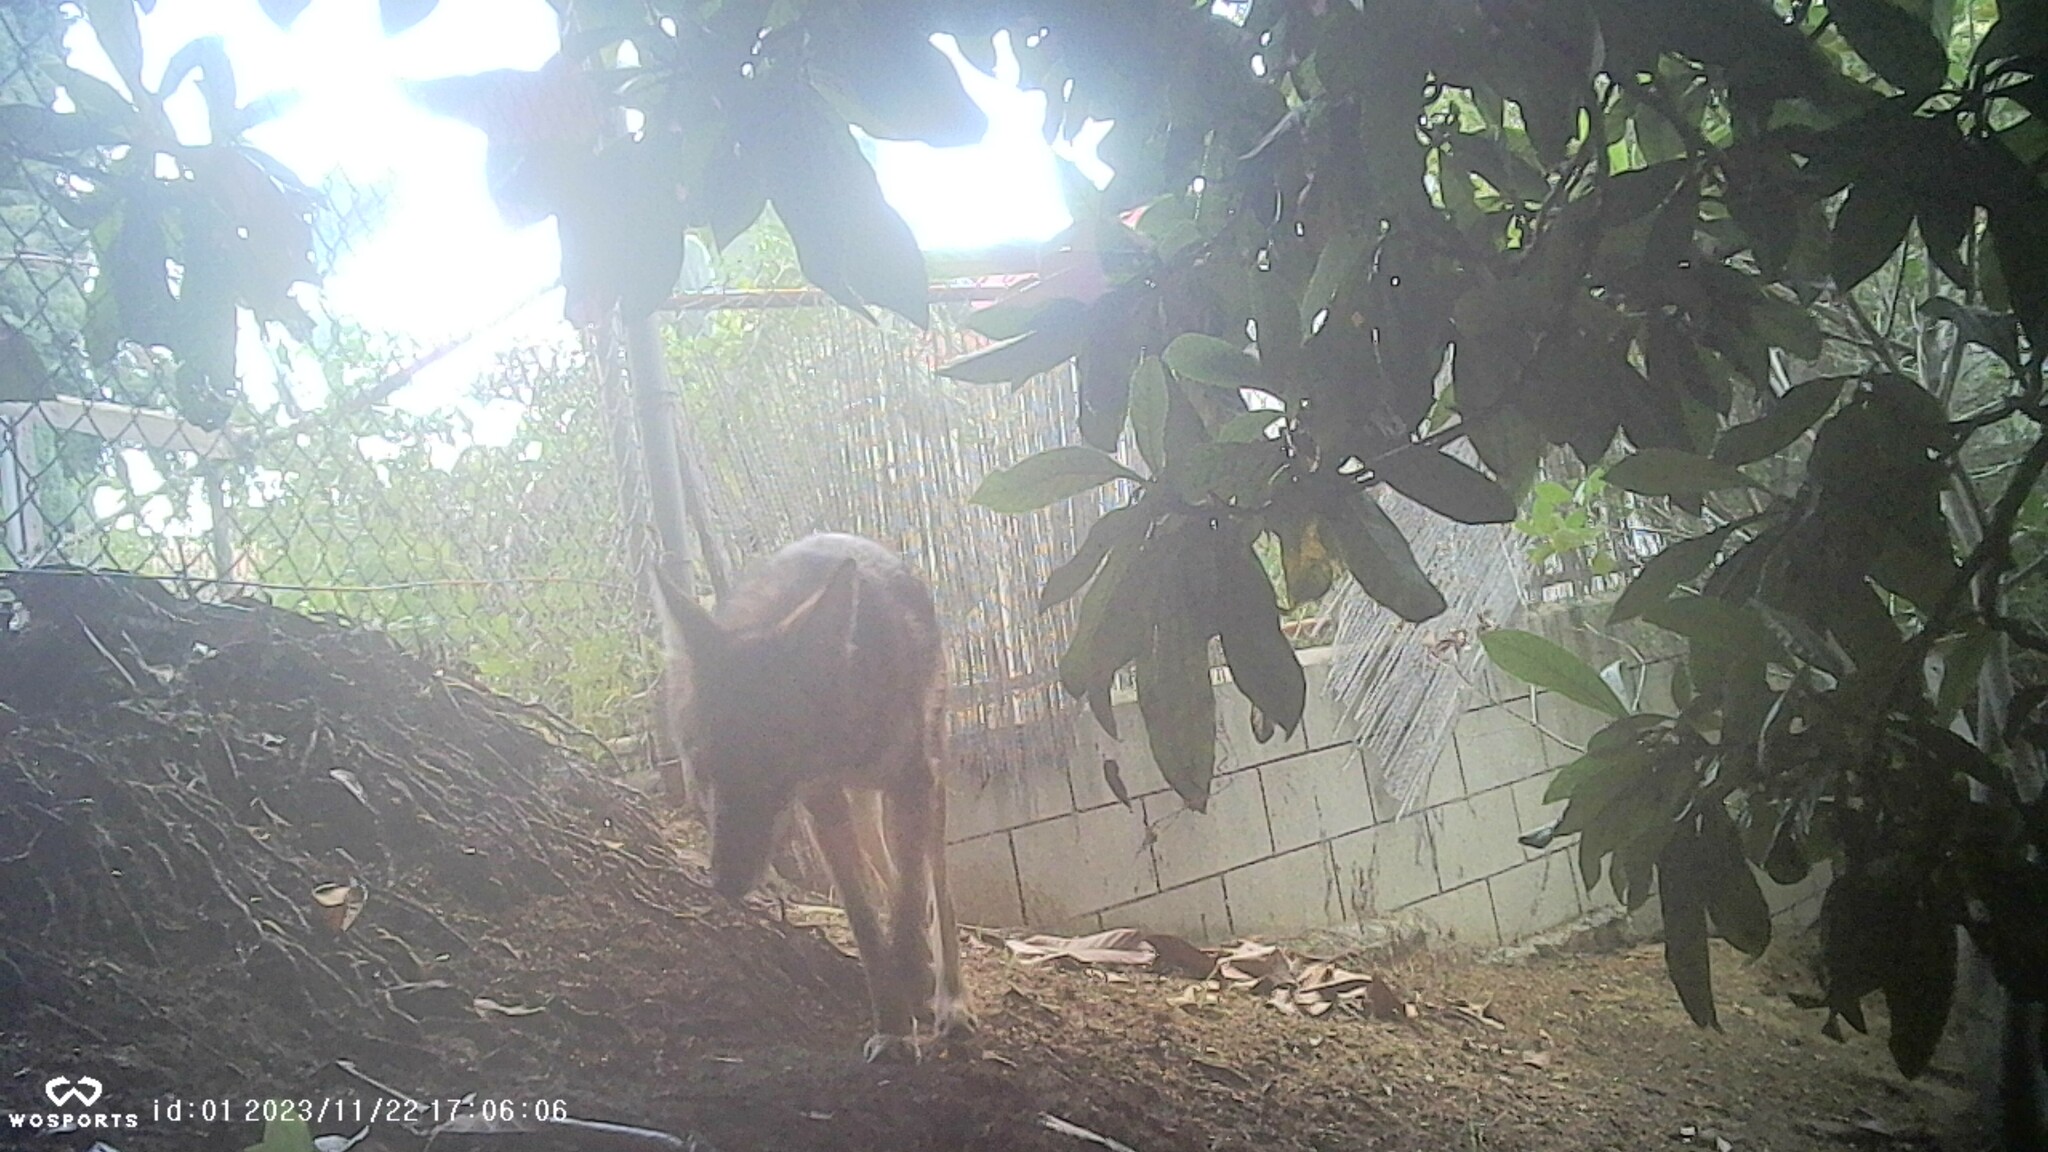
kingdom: Animalia
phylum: Chordata
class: Mammalia
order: Carnivora
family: Canidae
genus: Canis
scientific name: Canis latrans
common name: Coyote
